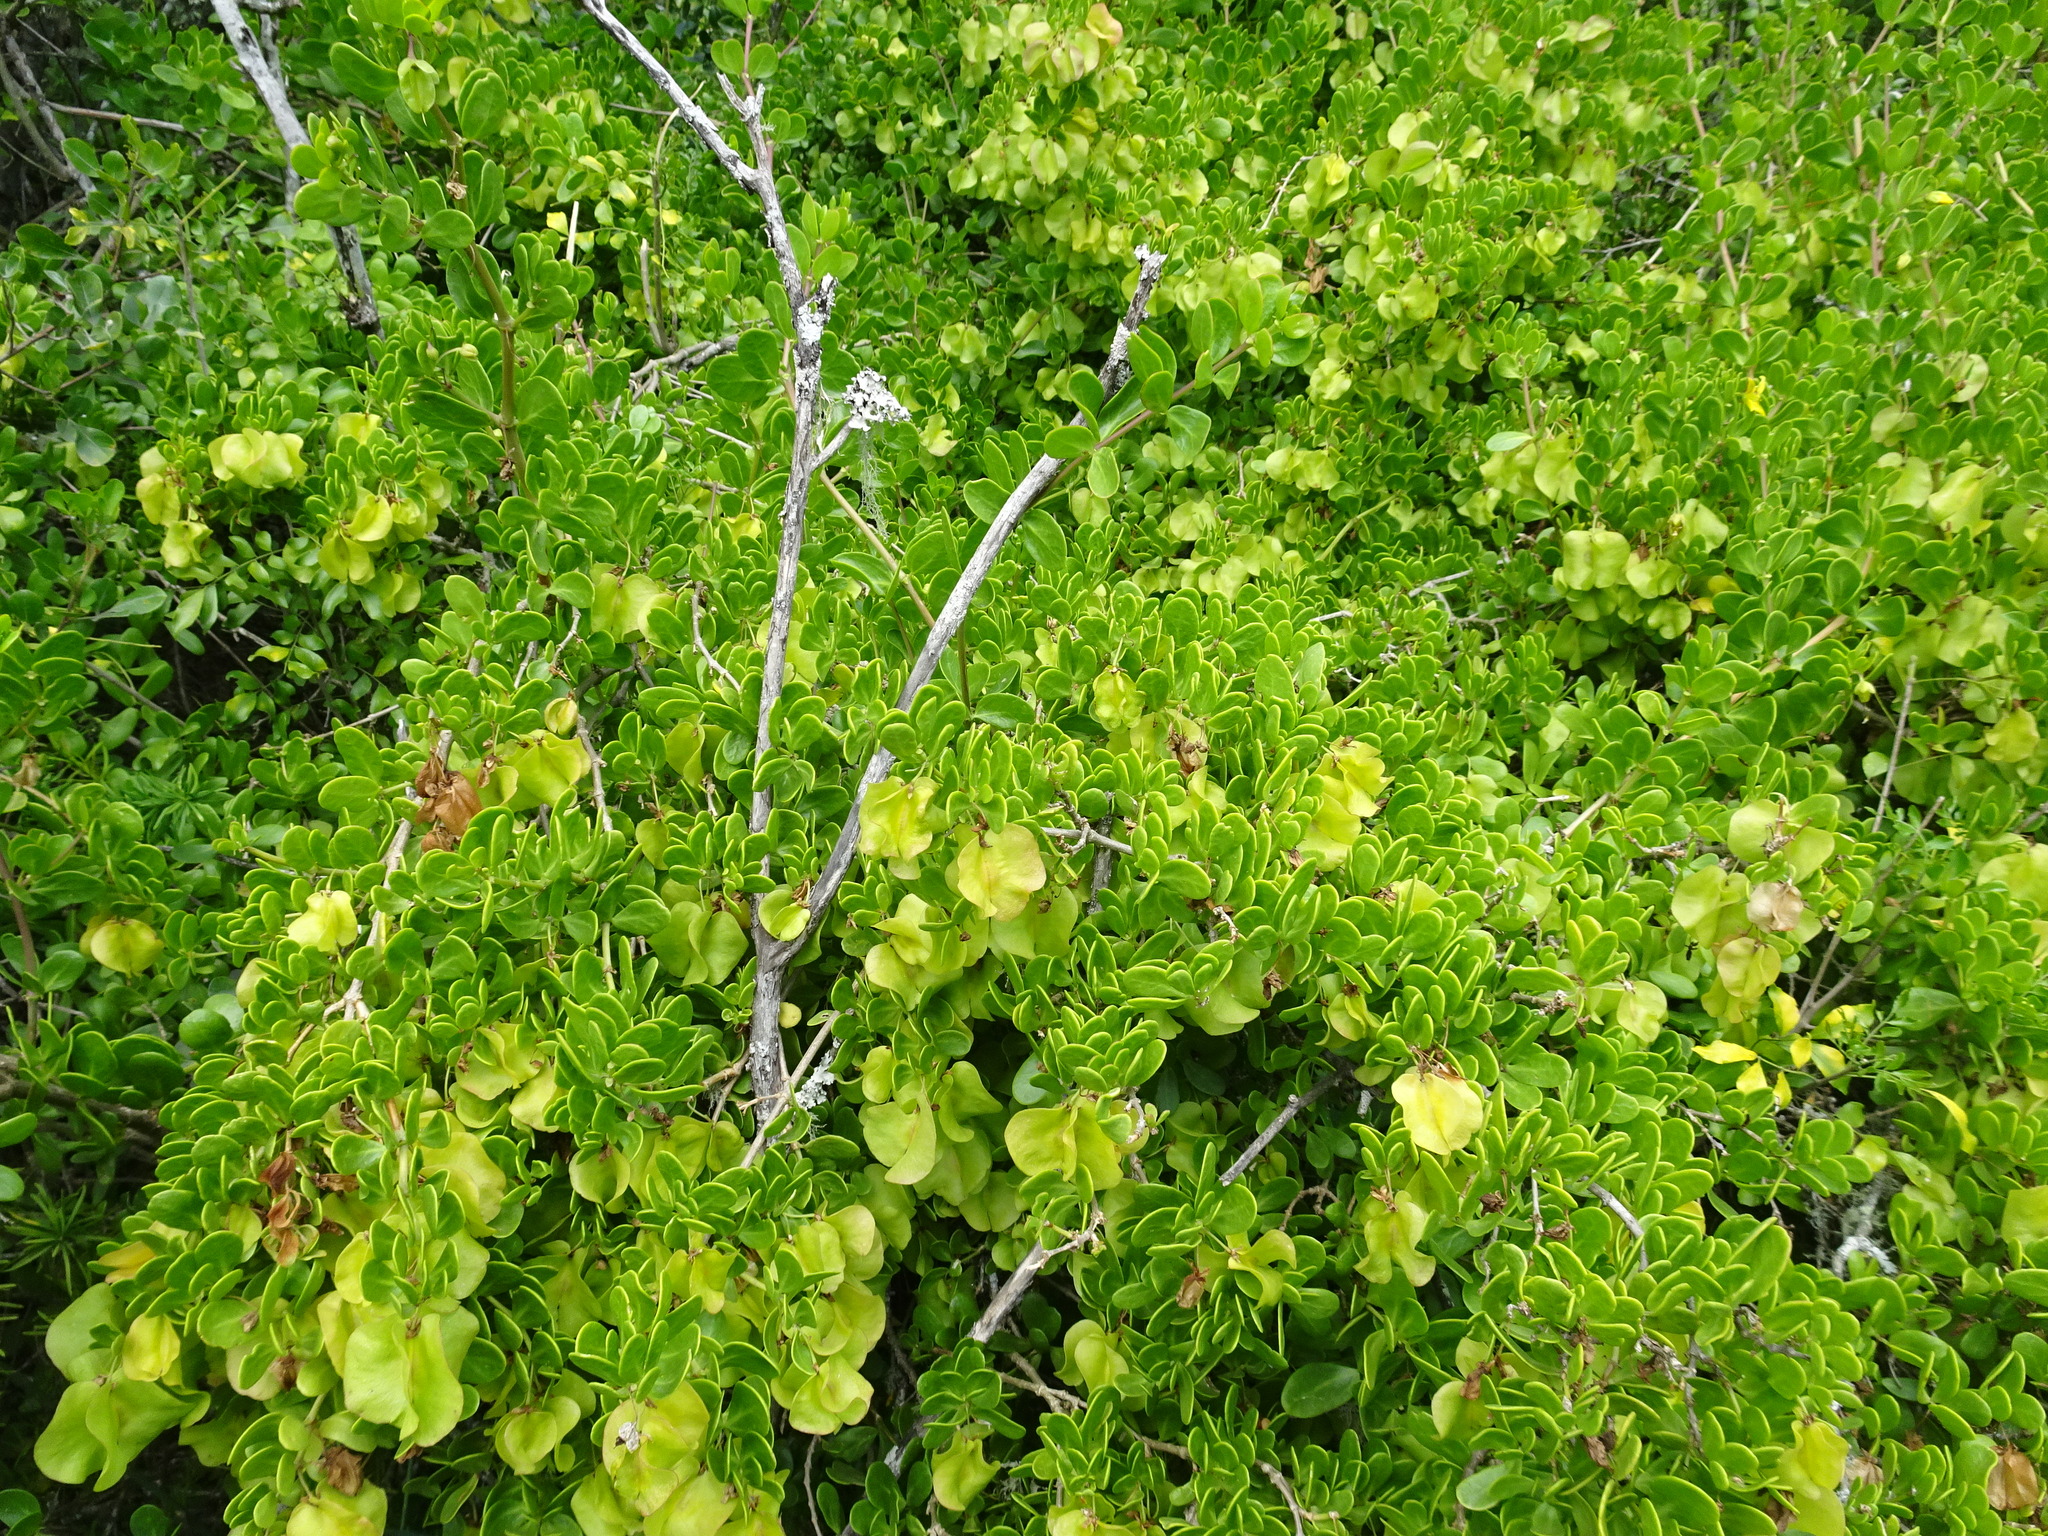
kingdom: Plantae
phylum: Tracheophyta
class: Magnoliopsida
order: Zygophyllales
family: Zygophyllaceae
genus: Roepera
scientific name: Roepera morgsana
